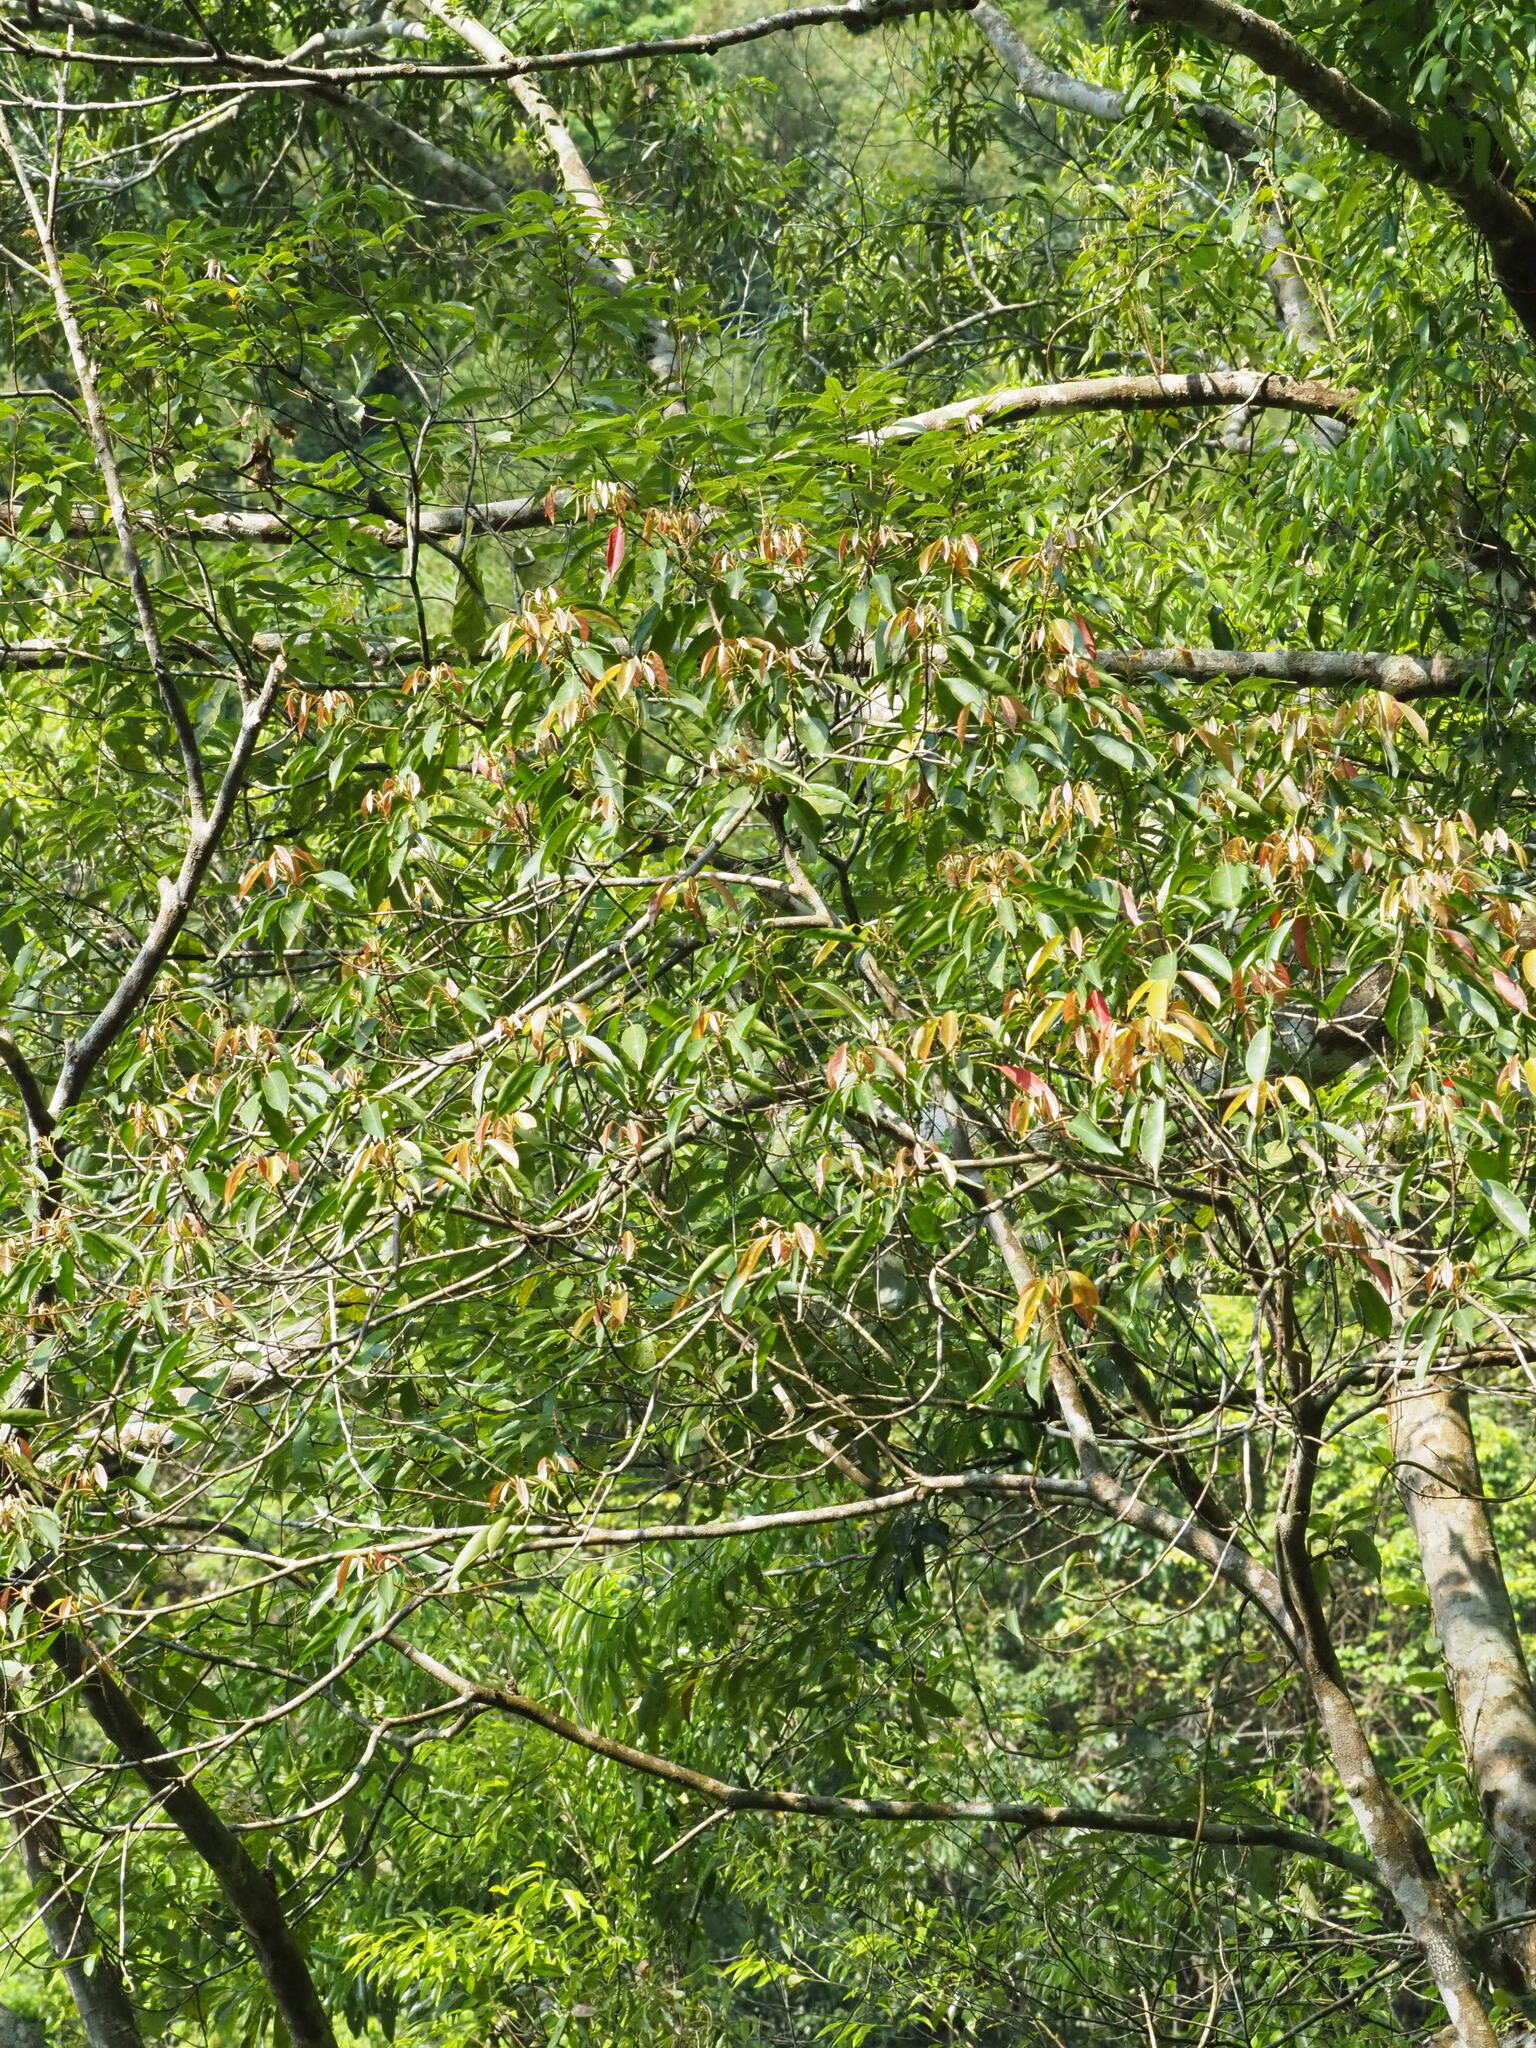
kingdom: Plantae
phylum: Tracheophyta
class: Magnoliopsida
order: Oxalidales
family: Elaeocarpaceae
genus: Elaeocarpus
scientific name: Elaeocarpus japonicus
